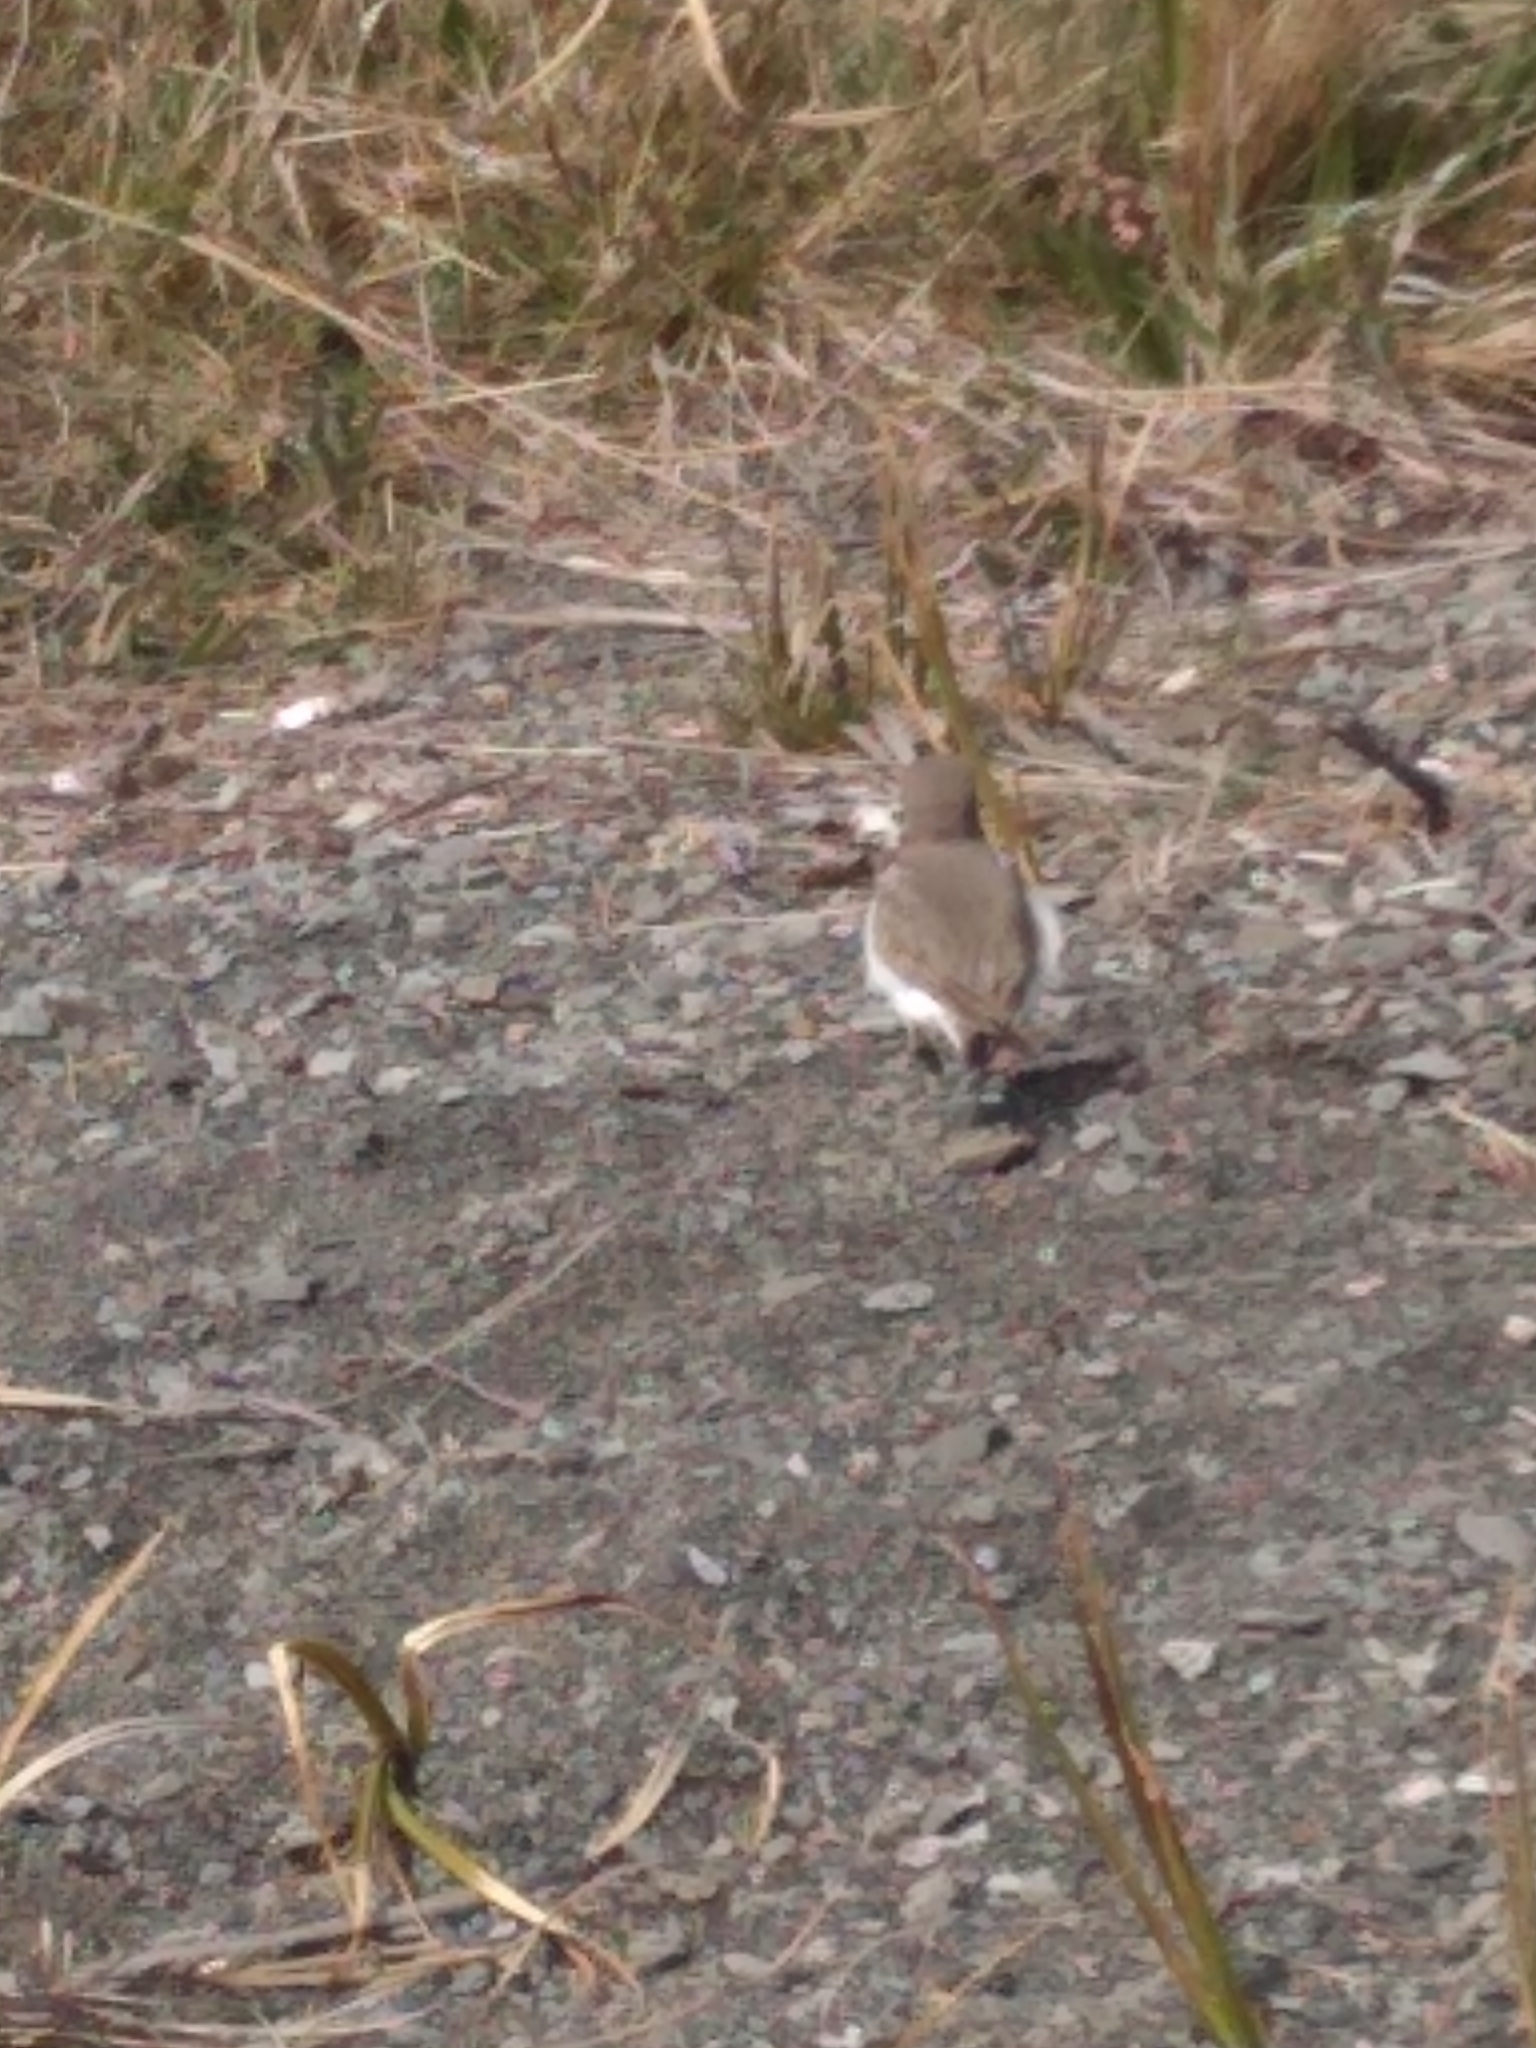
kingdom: Animalia
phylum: Chordata
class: Aves
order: Charadriiformes
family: Charadriidae
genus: Anarhynchus
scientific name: Anarhynchus
